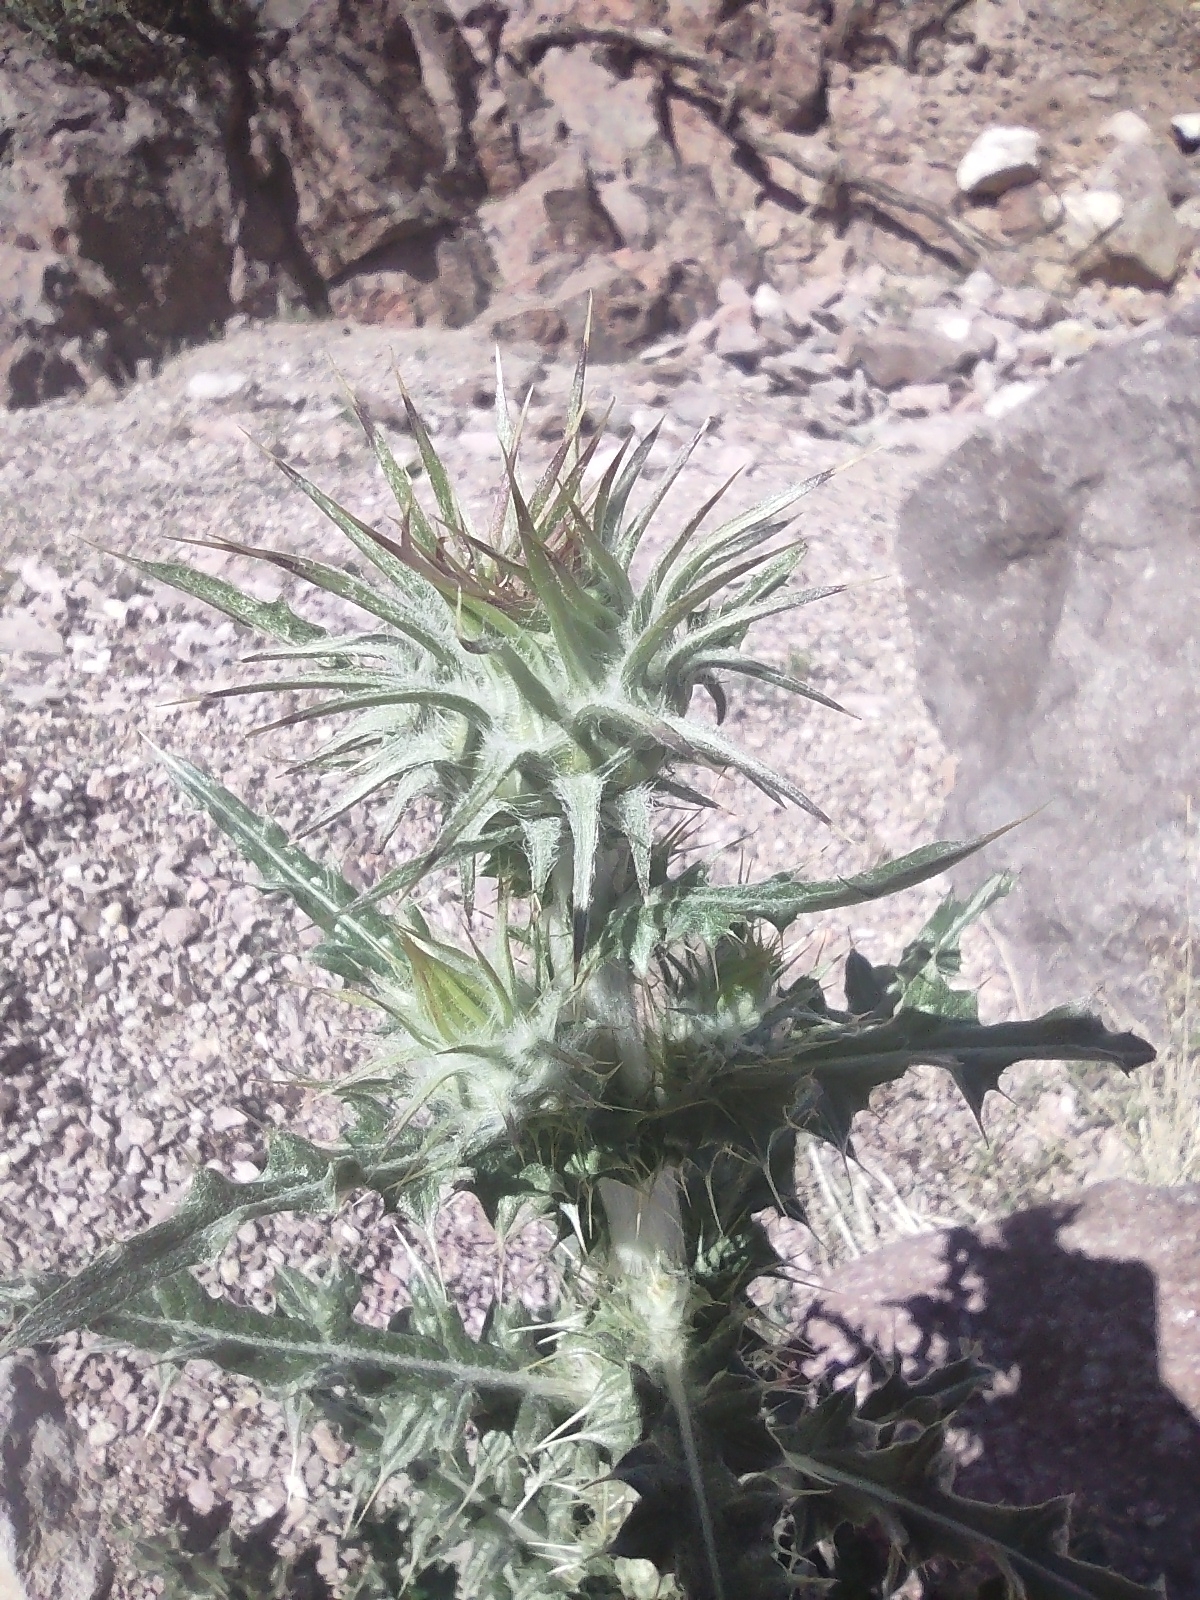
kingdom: Plantae
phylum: Tracheophyta
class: Magnoliopsida
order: Asterales
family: Asteraceae
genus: Cirsium
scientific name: Cirsium neomexicanum
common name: New mexico thistle
